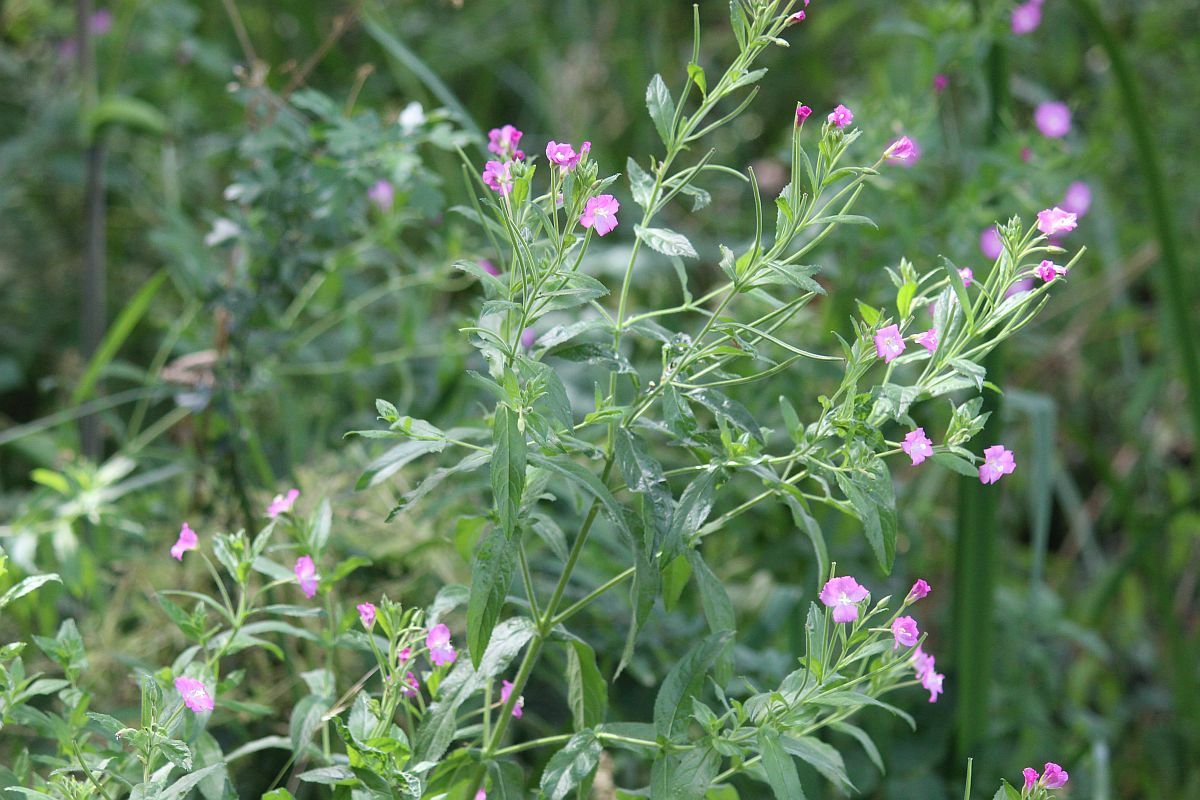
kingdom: Plantae
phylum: Tracheophyta
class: Magnoliopsida
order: Myrtales
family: Onagraceae
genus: Epilobium
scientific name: Epilobium hirsutum
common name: Great willowherb
